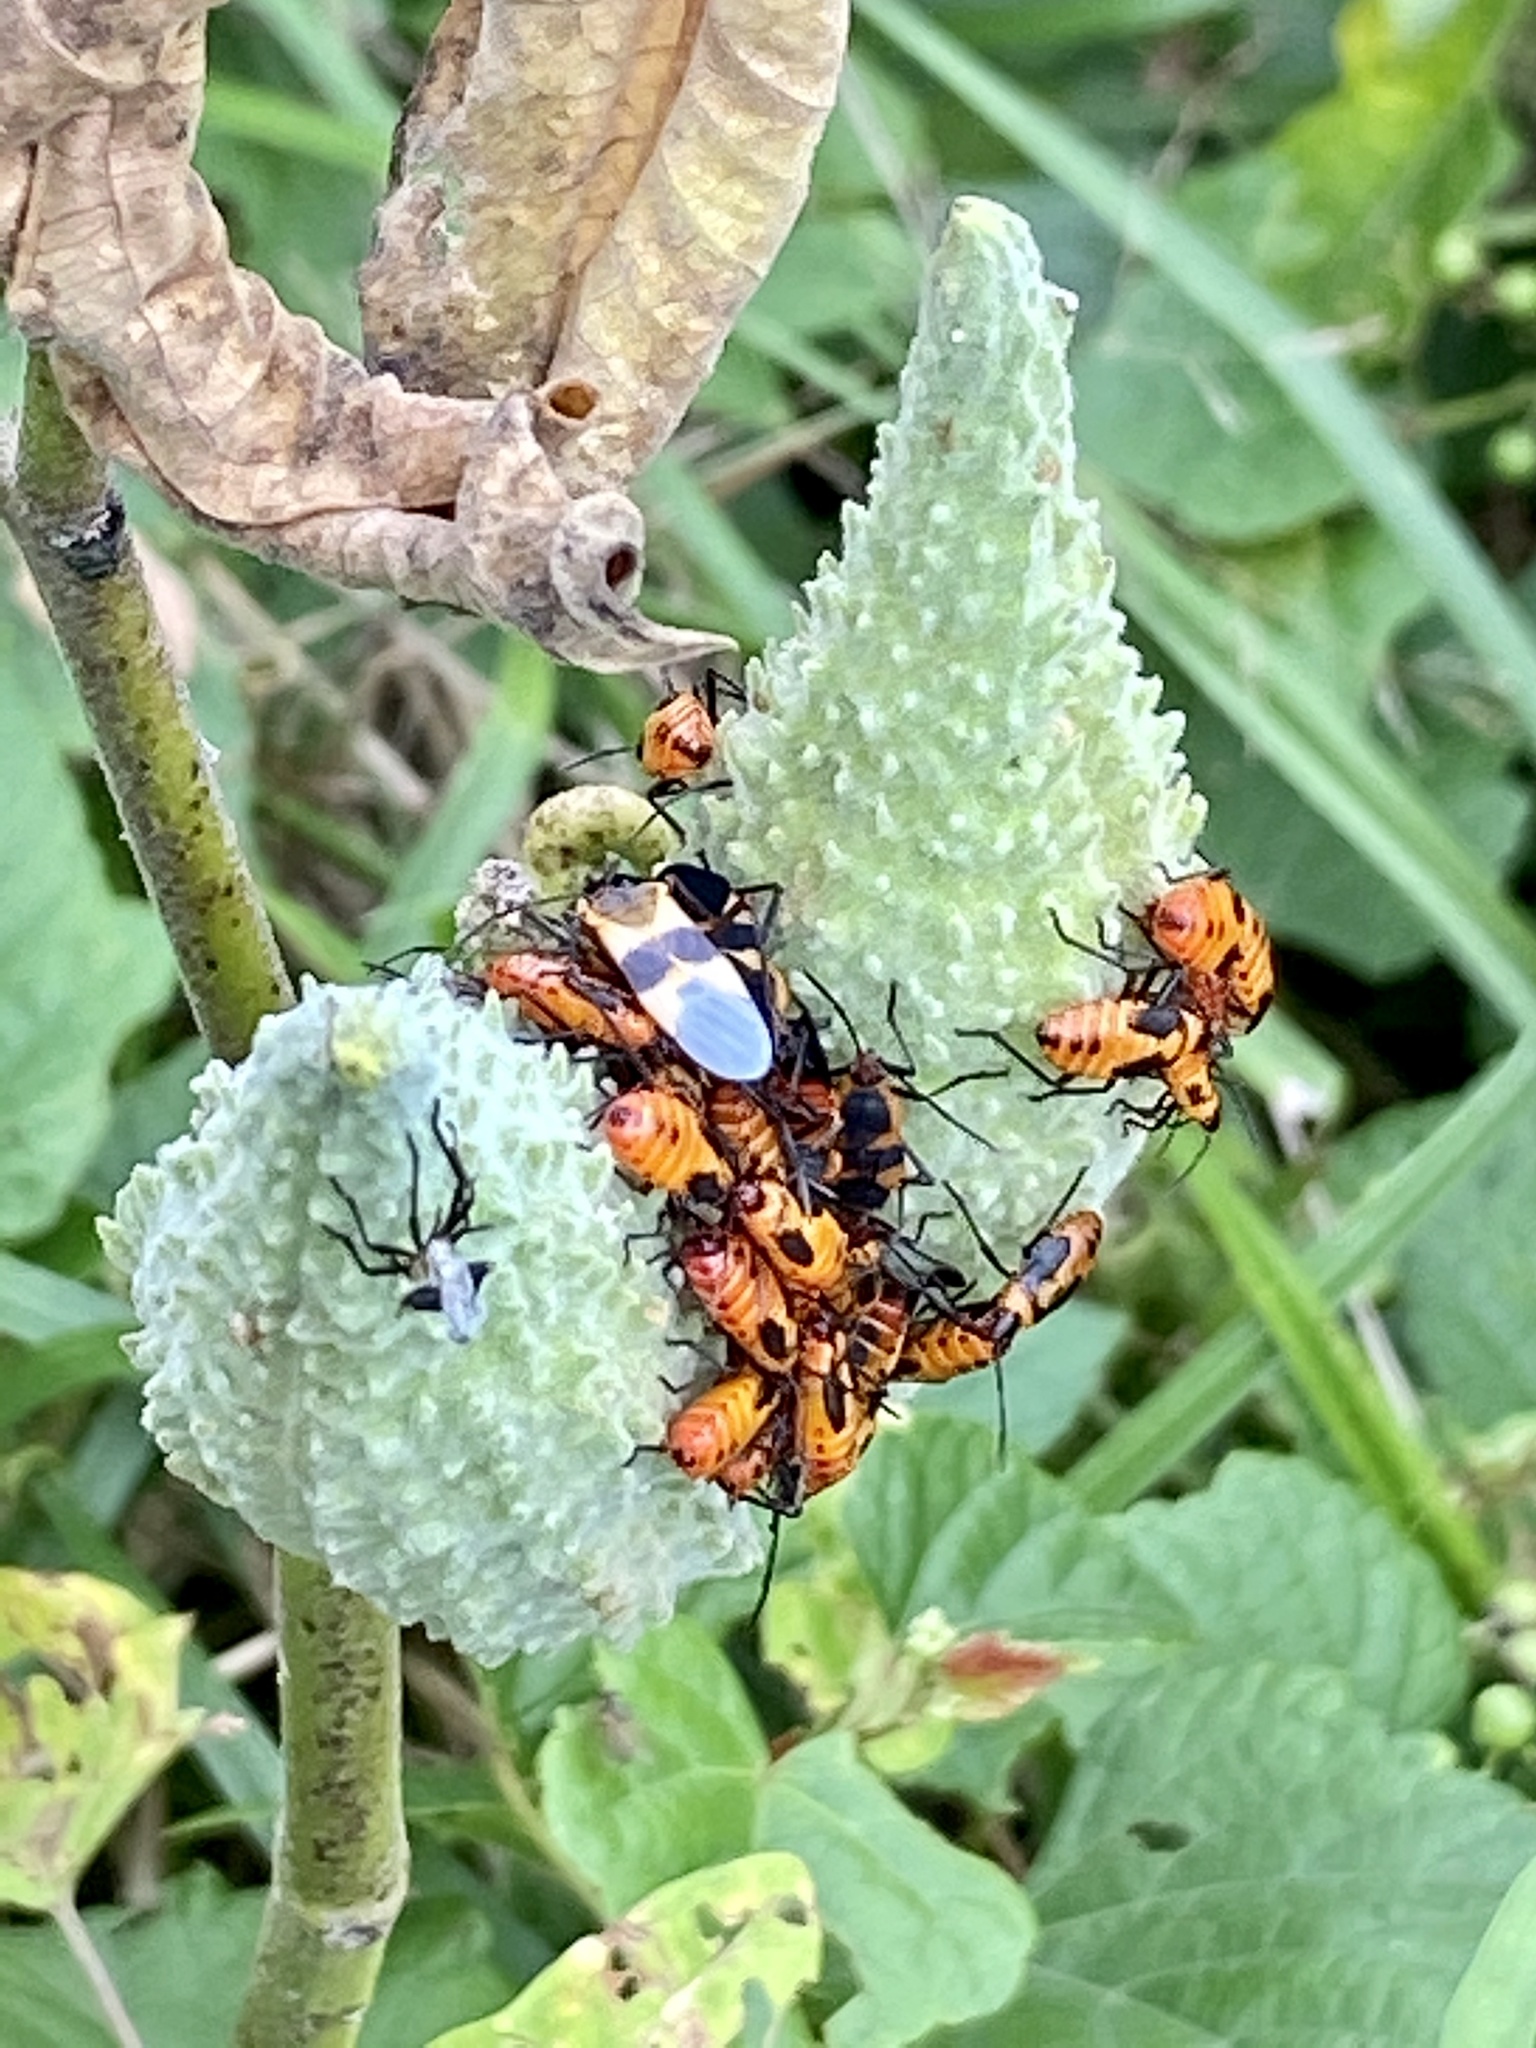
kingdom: Animalia
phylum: Arthropoda
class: Insecta
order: Hemiptera
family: Lygaeidae
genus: Oncopeltus
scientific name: Oncopeltus fasciatus
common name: Large milkweed bug
